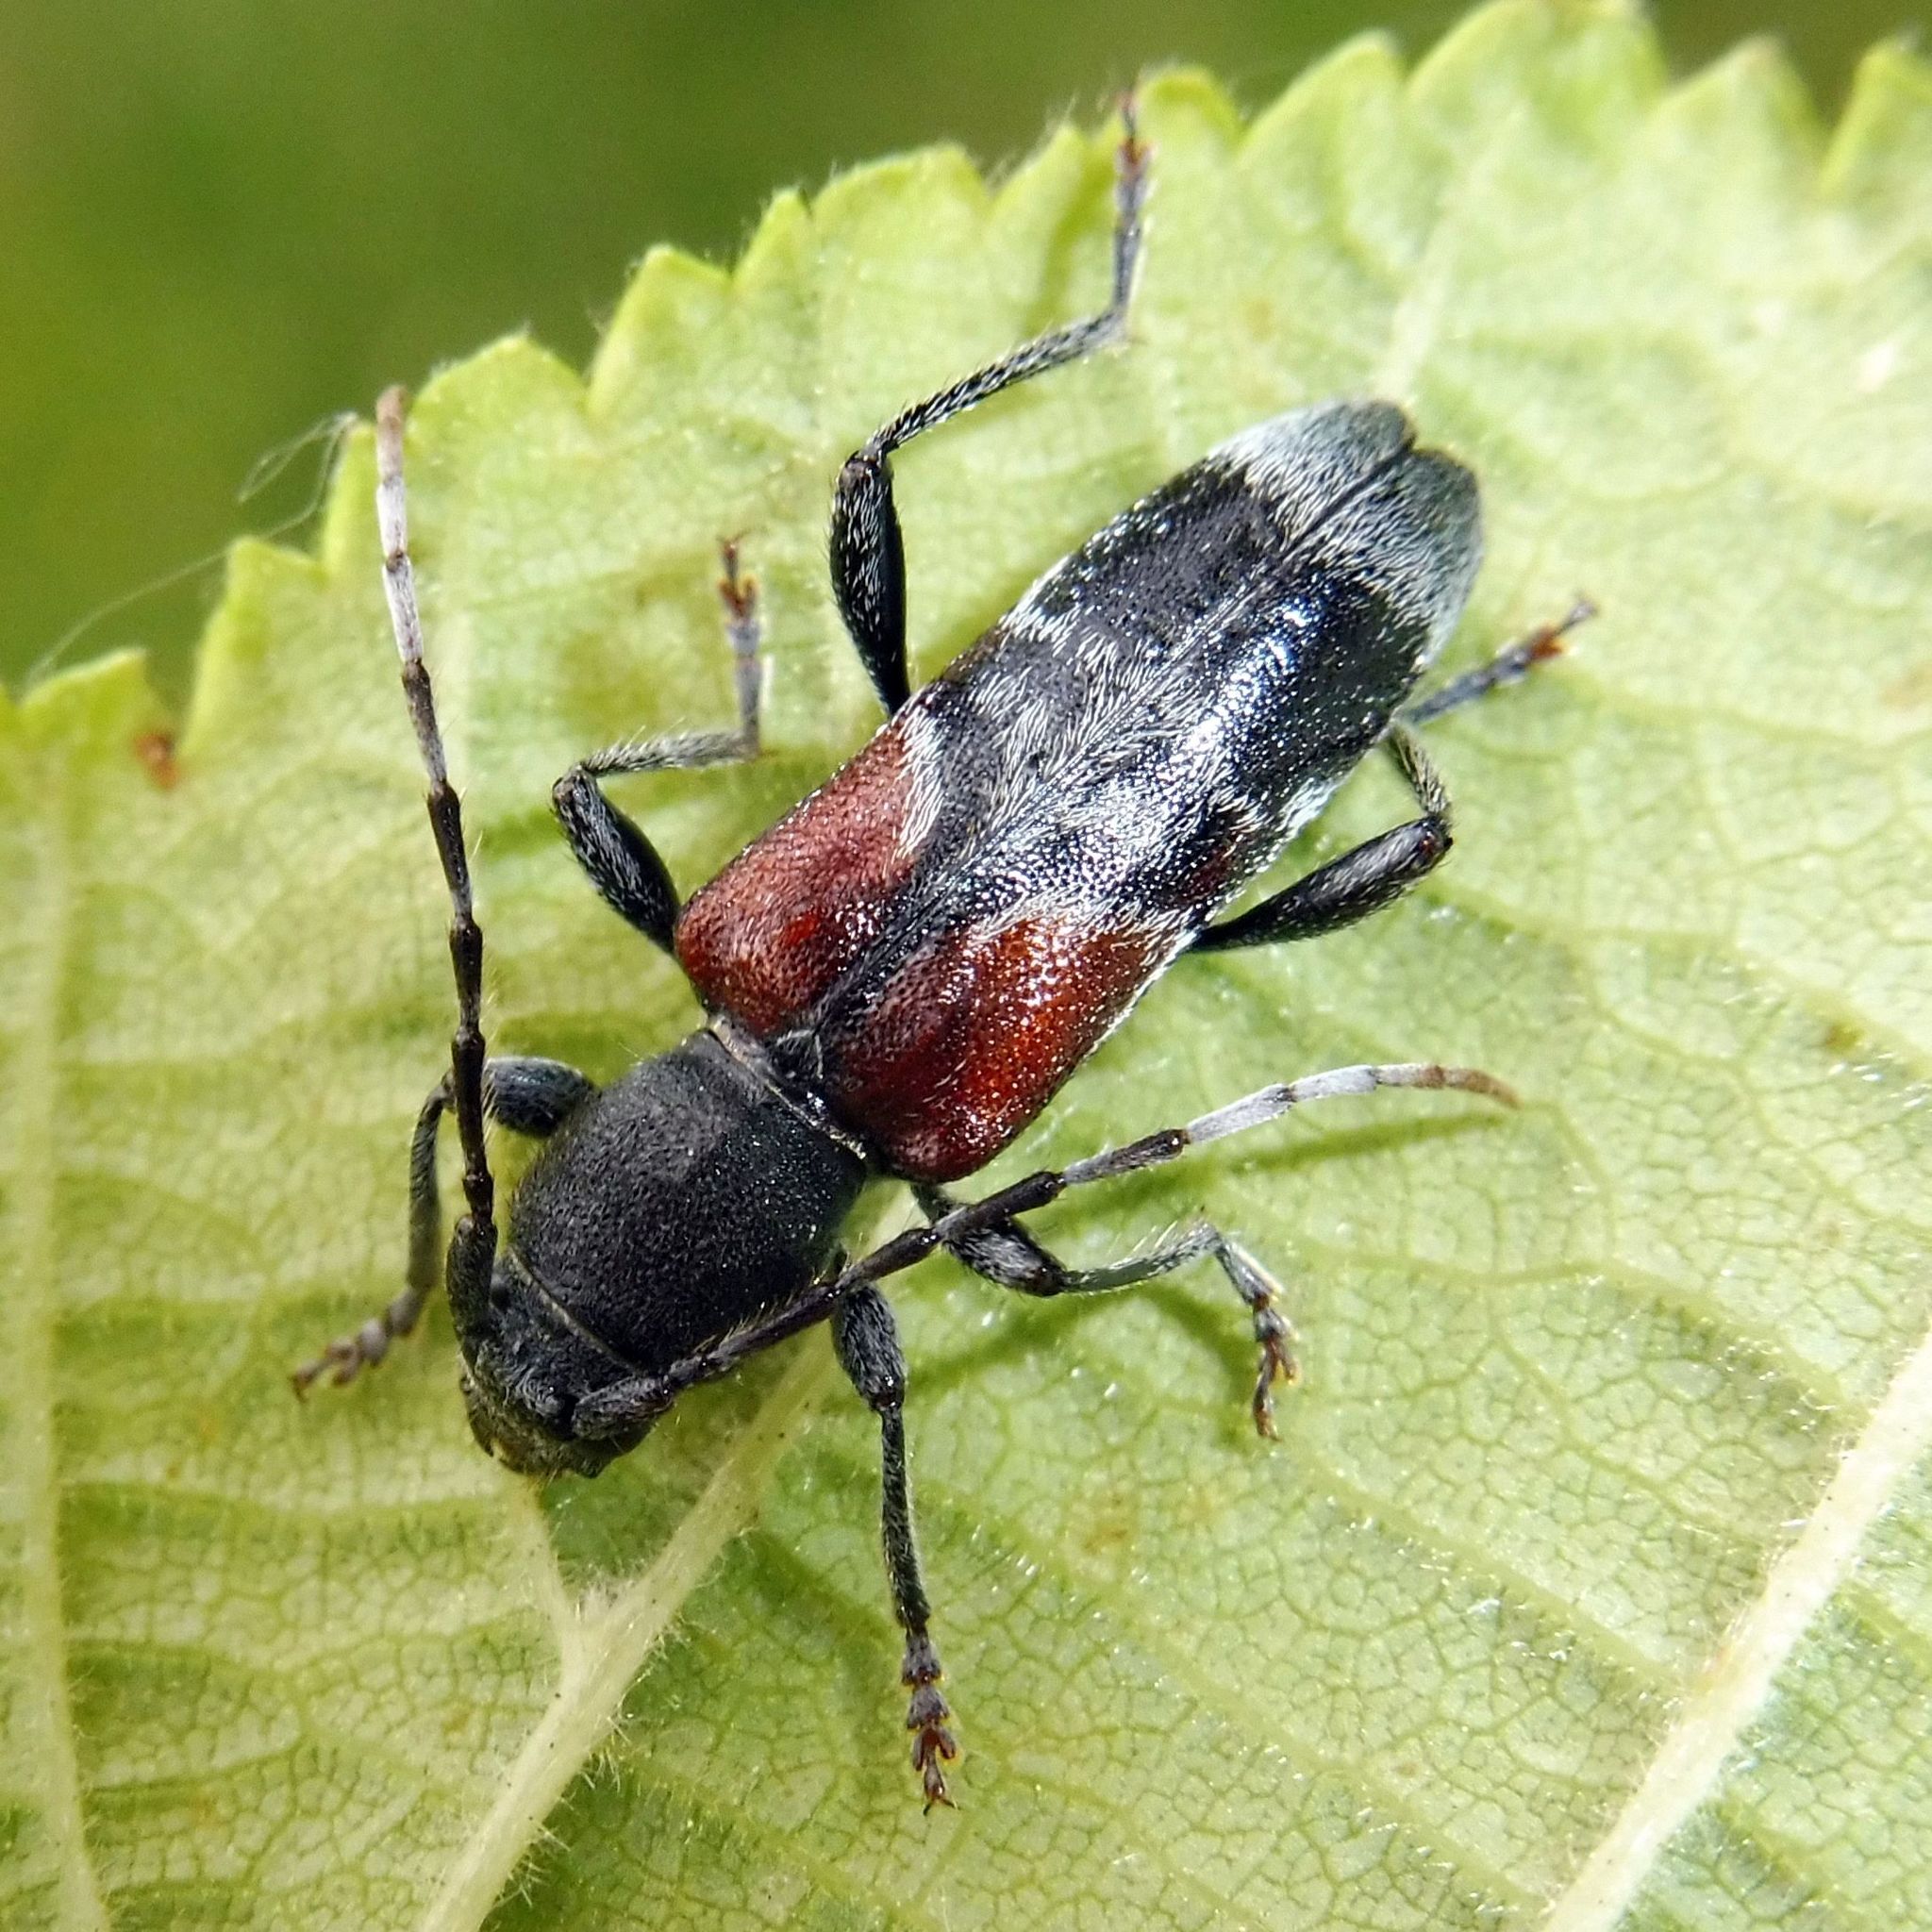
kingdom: Animalia
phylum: Arthropoda
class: Insecta
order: Coleoptera
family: Cerambycidae
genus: Anaglyptus
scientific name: Anaglyptus mysticus
